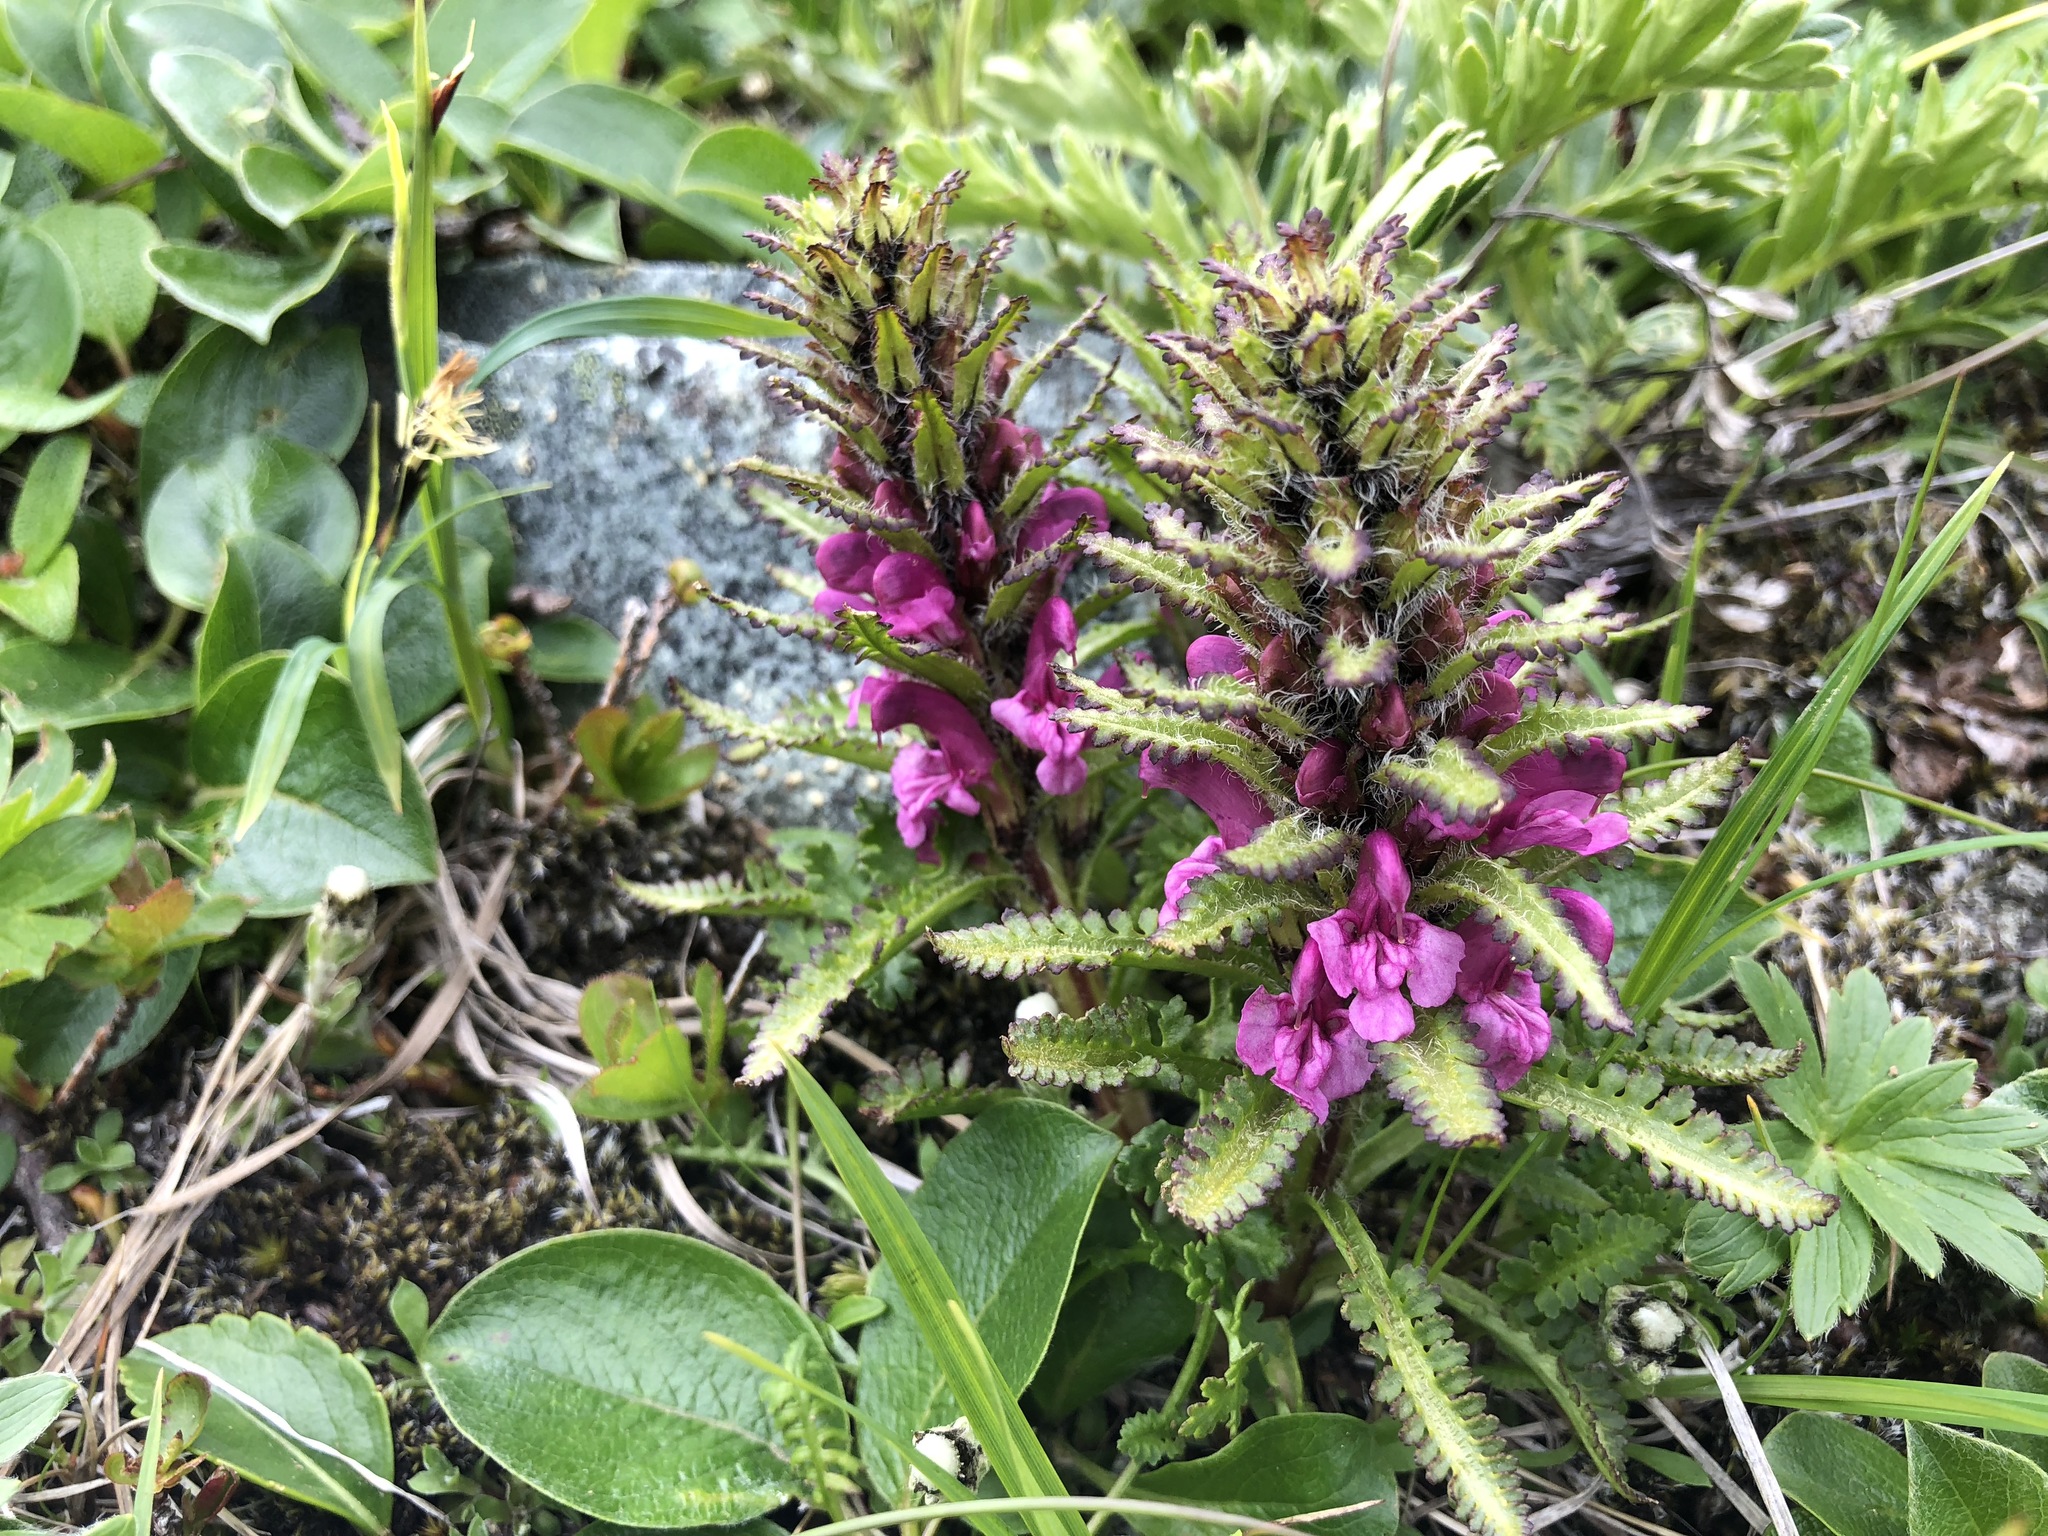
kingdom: Plantae
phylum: Tracheophyta
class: Magnoliopsida
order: Lamiales
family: Orobanchaceae
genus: Pedicularis
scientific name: Pedicularis langsdorffii
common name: Langsdorff's lousewort
